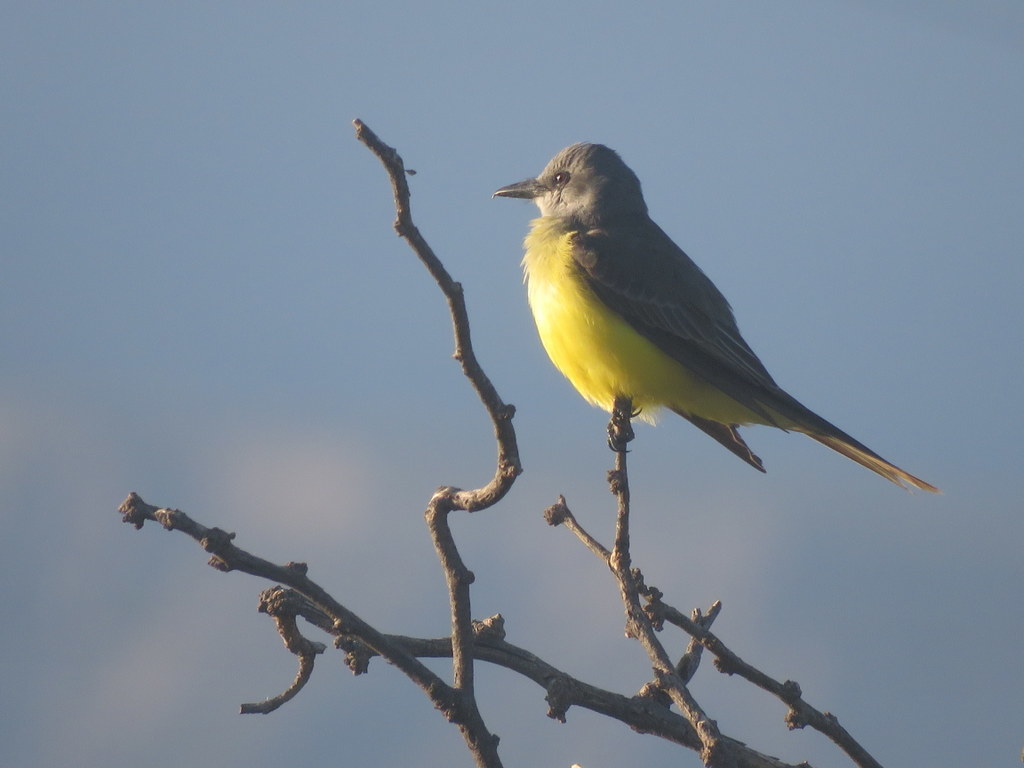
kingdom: Animalia
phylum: Chordata
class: Aves
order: Passeriformes
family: Tyrannidae
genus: Tyrannus
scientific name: Tyrannus melancholicus
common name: Tropical kingbird
